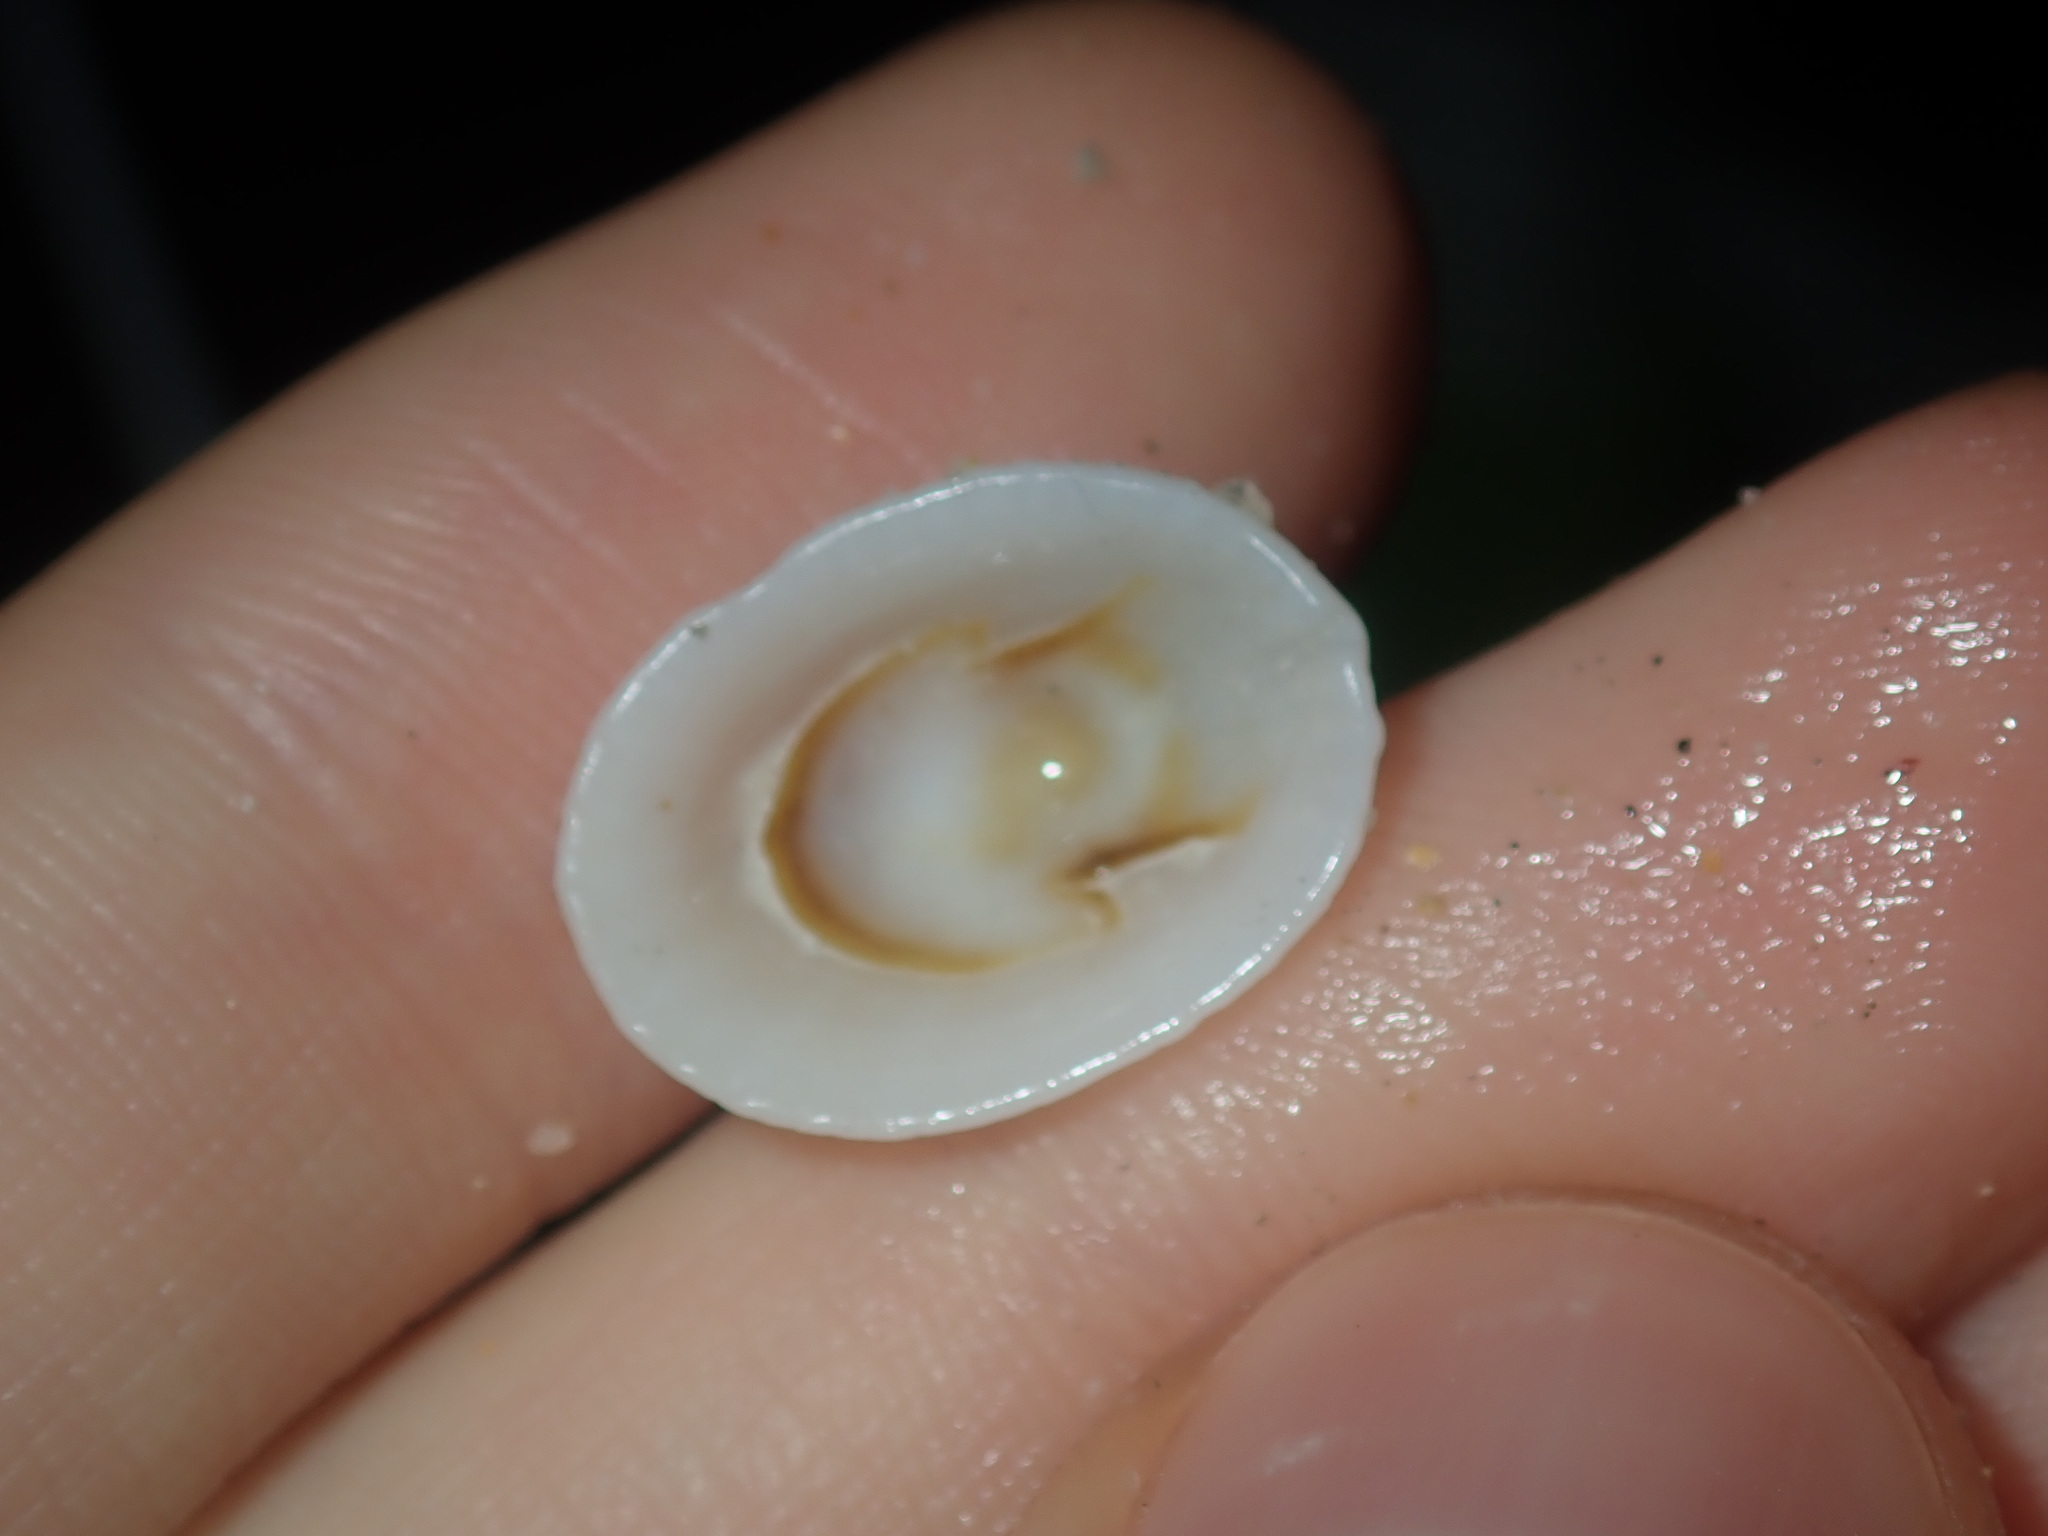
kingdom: Animalia
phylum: Mollusca
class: Gastropoda
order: Lepetellida
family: Fissurellidae
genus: Montfortula
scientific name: Montfortula rugosa
